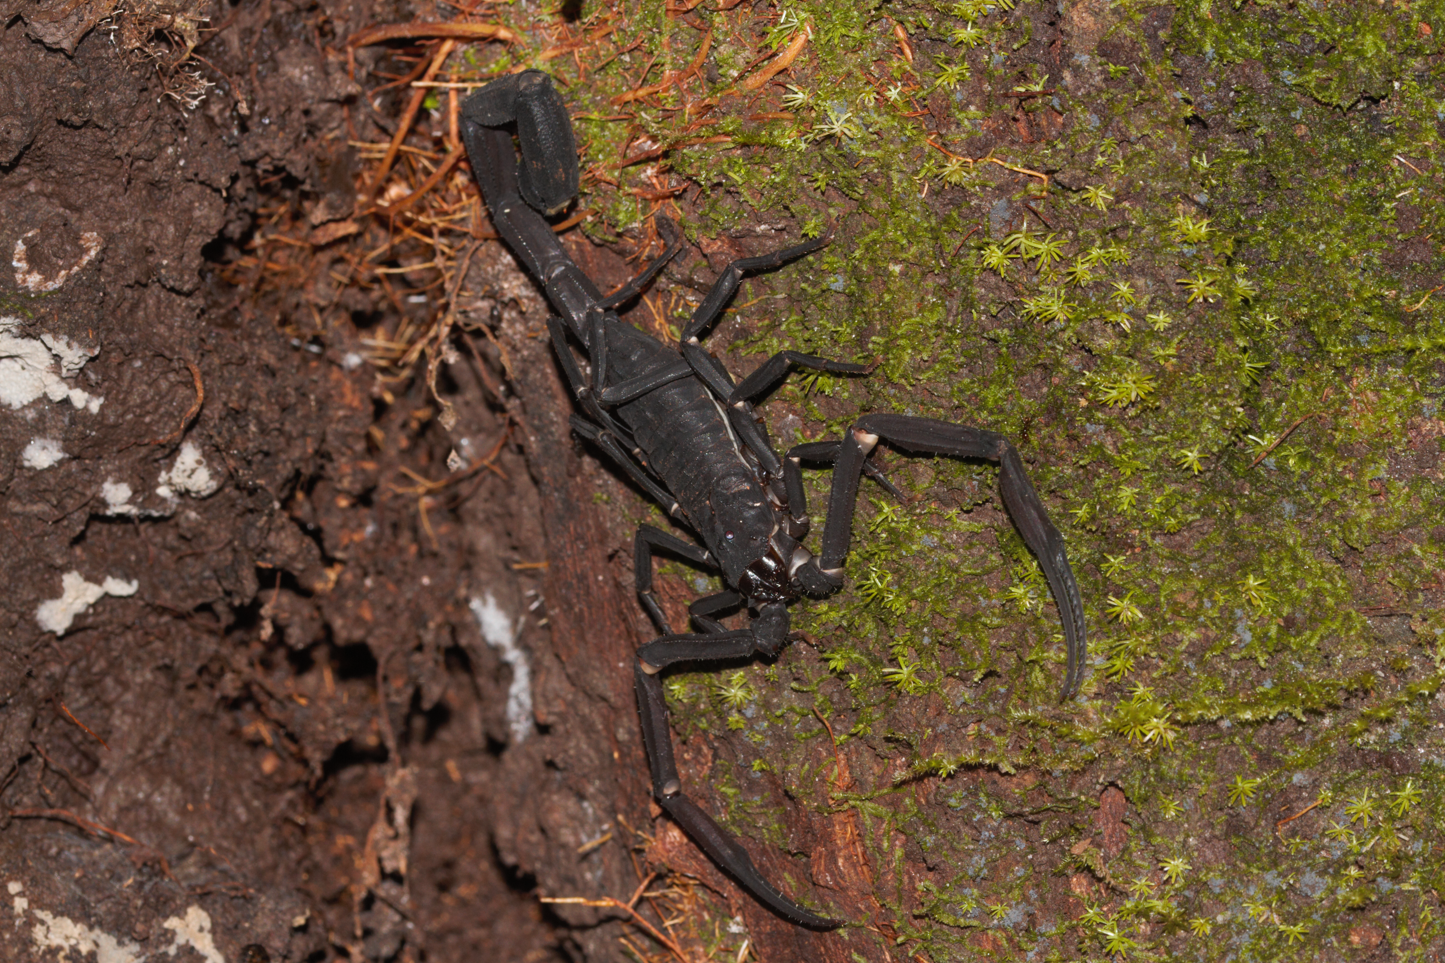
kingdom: Animalia
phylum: Arthropoda
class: Arachnida
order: Scorpiones
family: Buthidae
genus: Tityus
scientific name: Tityus obscurus
